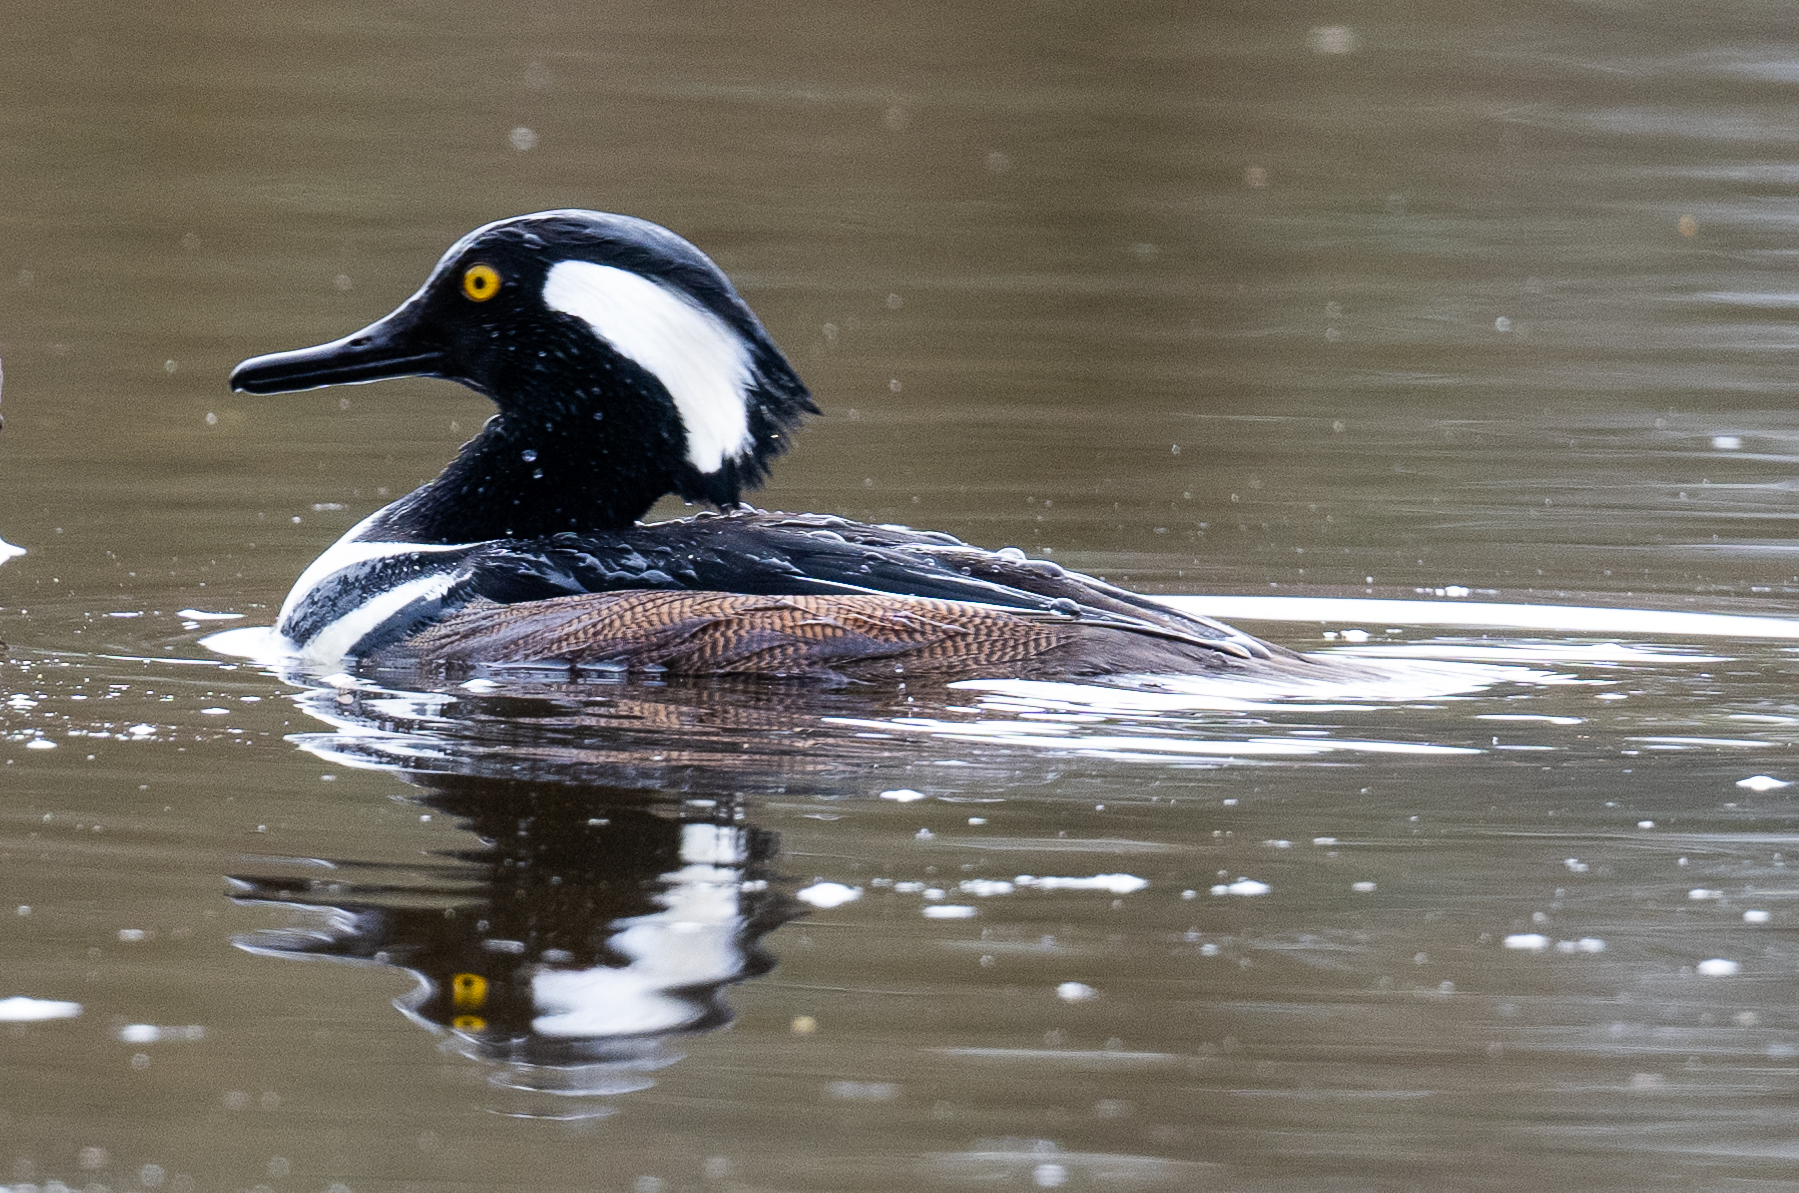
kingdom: Animalia
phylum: Chordata
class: Aves
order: Anseriformes
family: Anatidae
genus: Lophodytes
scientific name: Lophodytes cucullatus
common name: Hooded merganser
